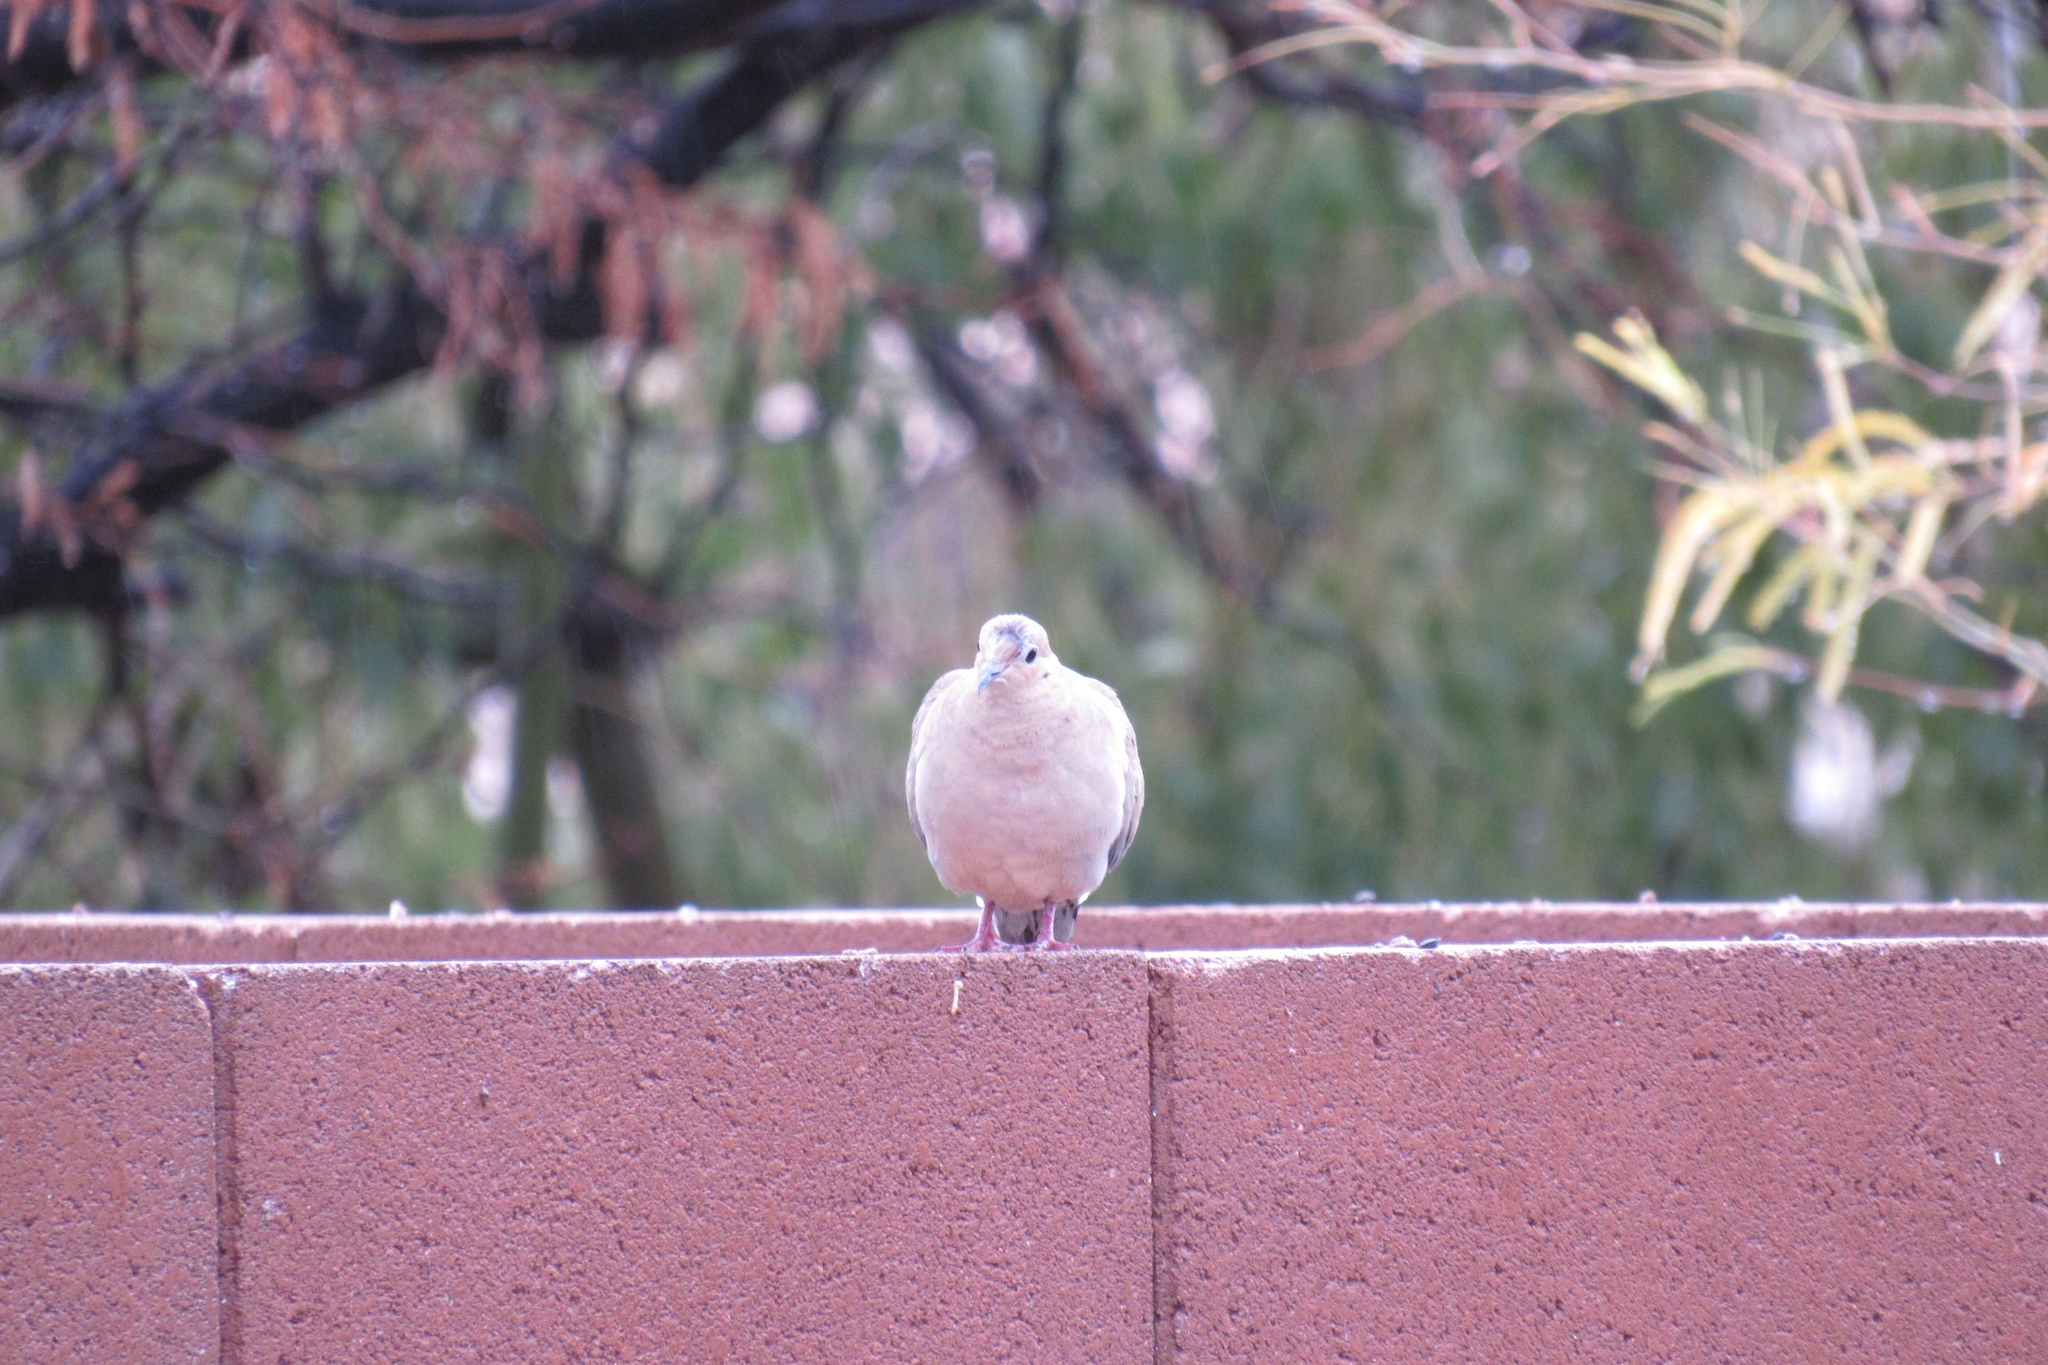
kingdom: Animalia
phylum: Chordata
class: Aves
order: Columbiformes
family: Columbidae
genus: Zenaida
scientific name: Zenaida macroura
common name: Mourning dove
